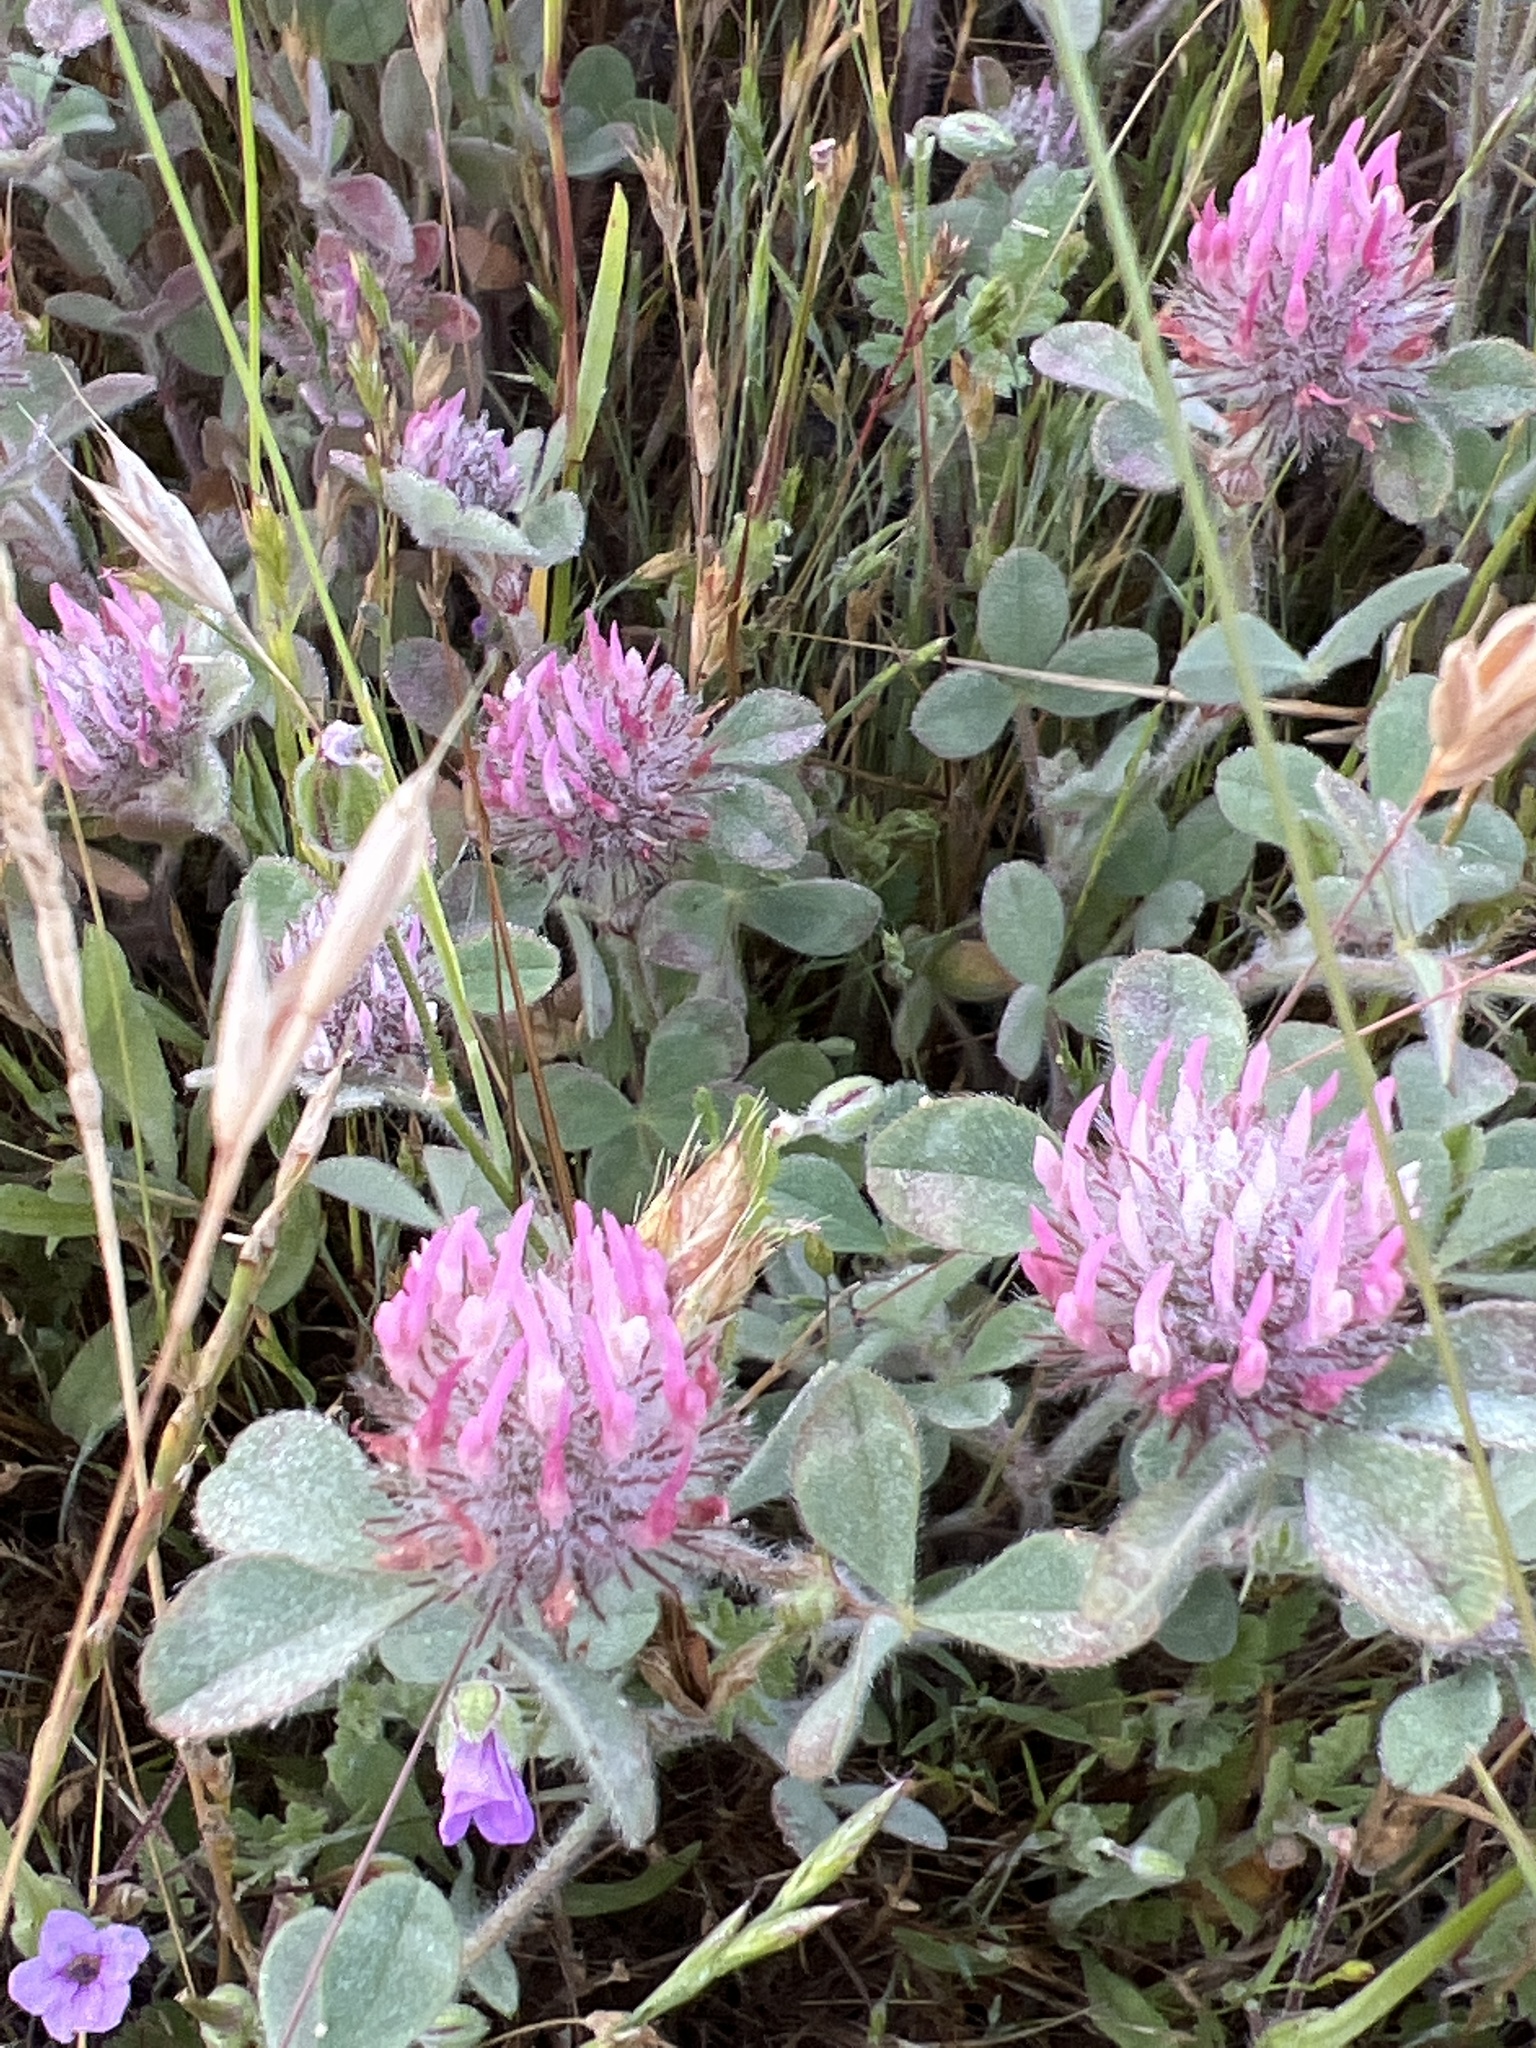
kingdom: Plantae
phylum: Tracheophyta
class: Magnoliopsida
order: Fabales
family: Fabaceae
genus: Trifolium
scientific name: Trifolium hirtum
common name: Rose clover
